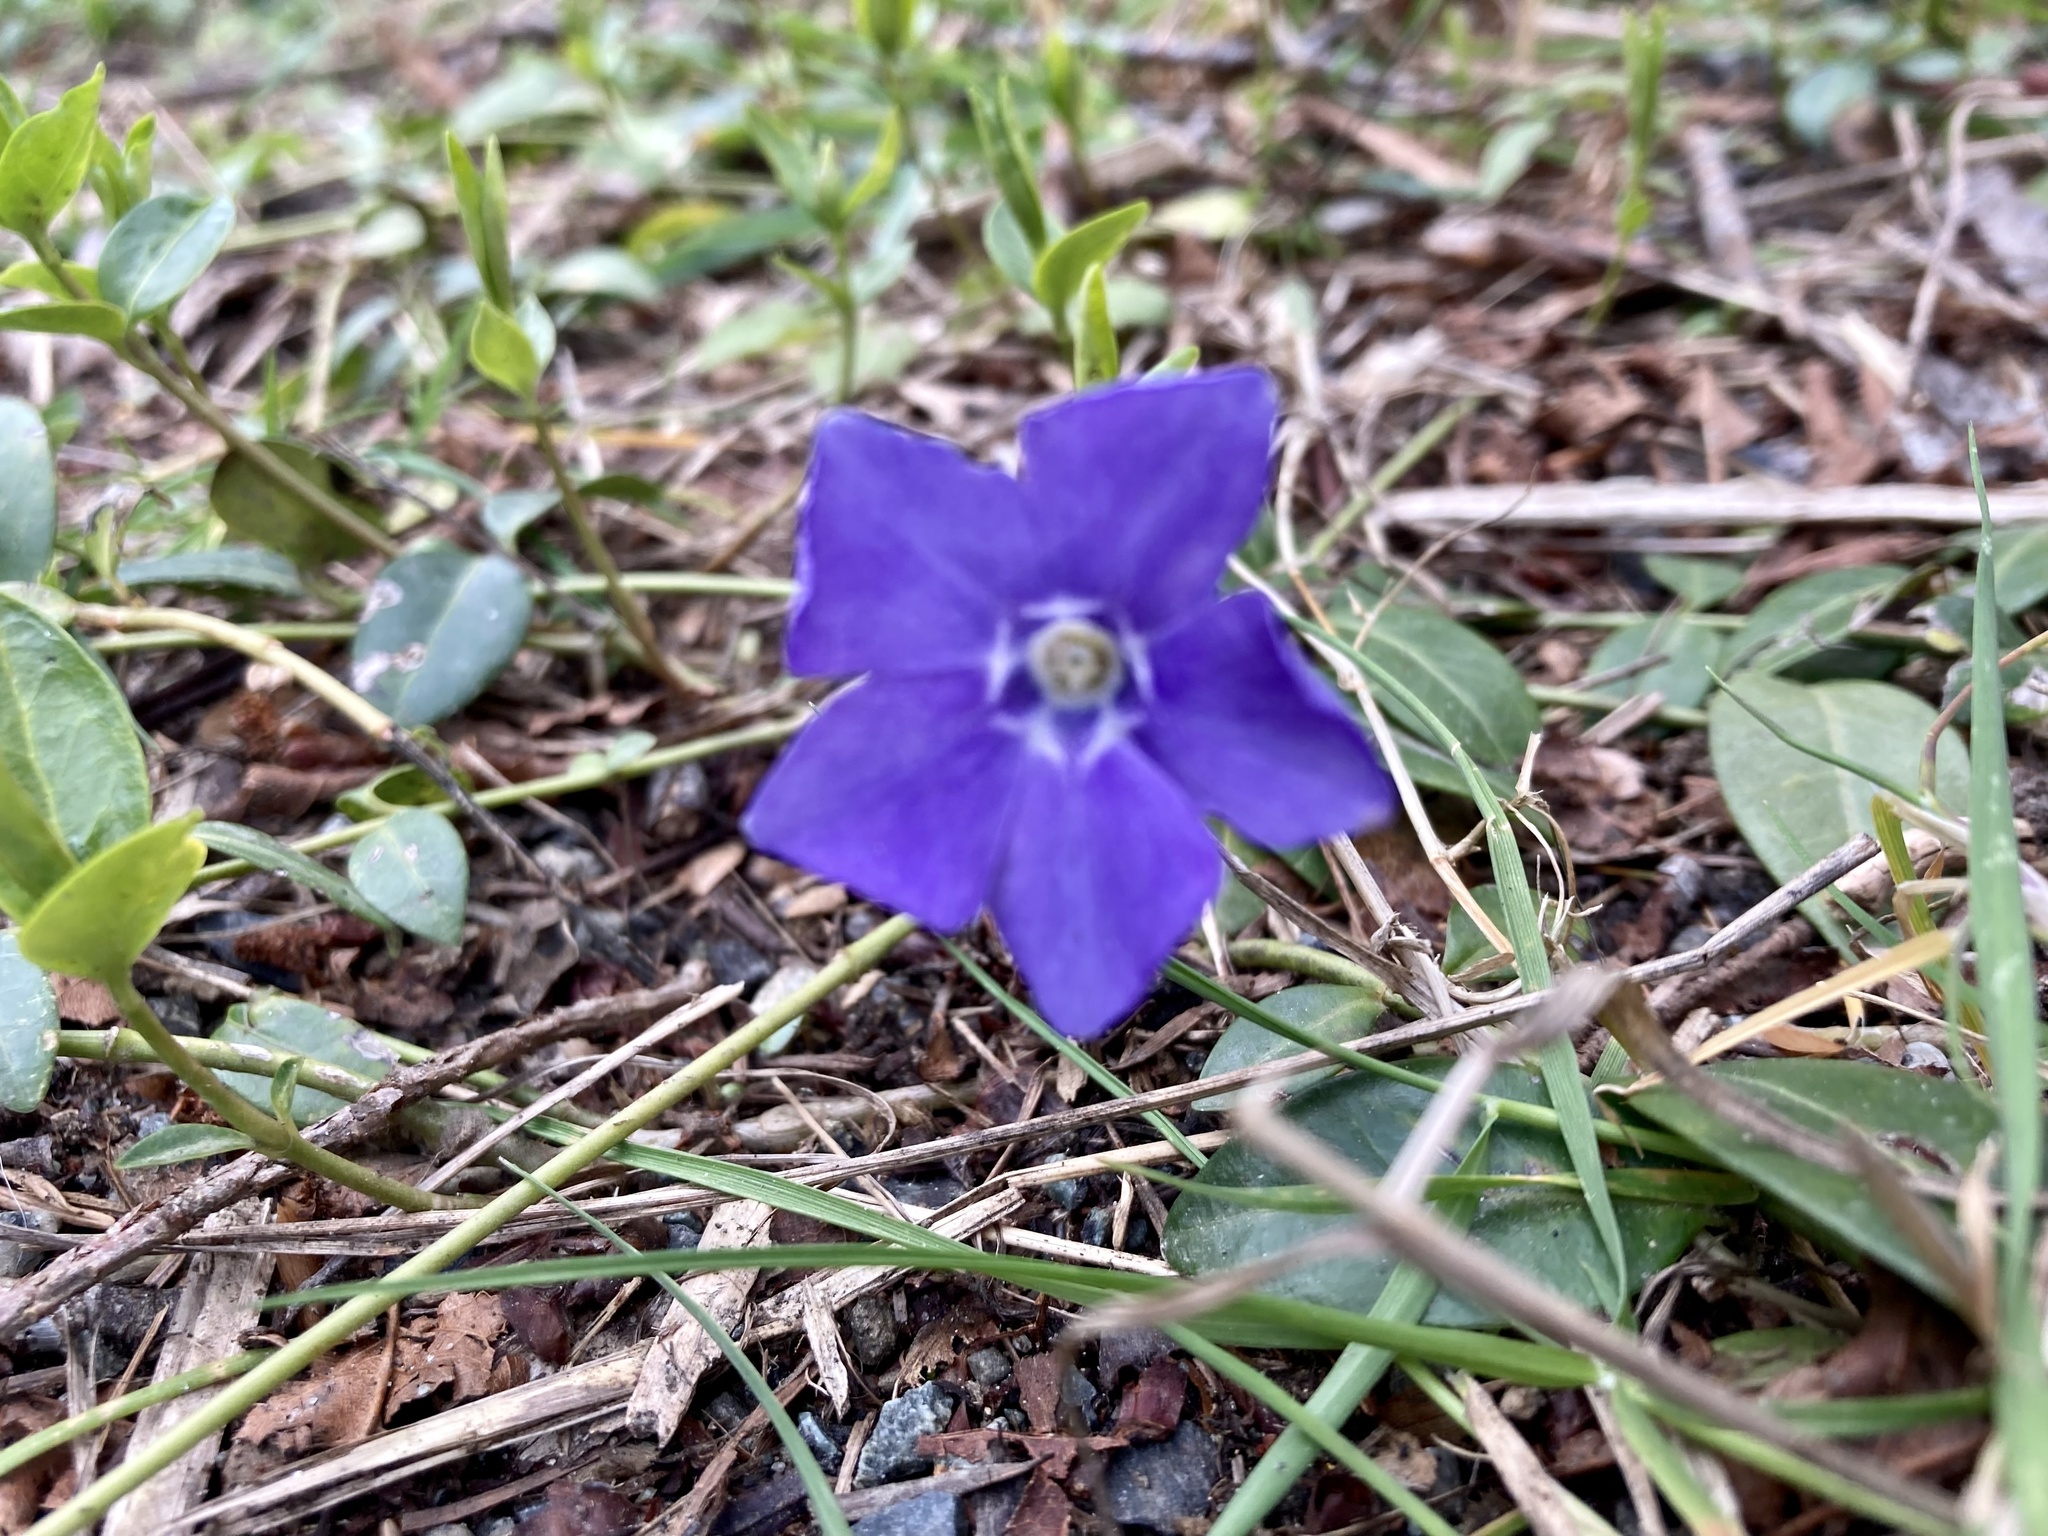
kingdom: Plantae
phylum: Tracheophyta
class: Magnoliopsida
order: Gentianales
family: Apocynaceae
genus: Vinca
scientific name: Vinca minor
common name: Lesser periwinkle
